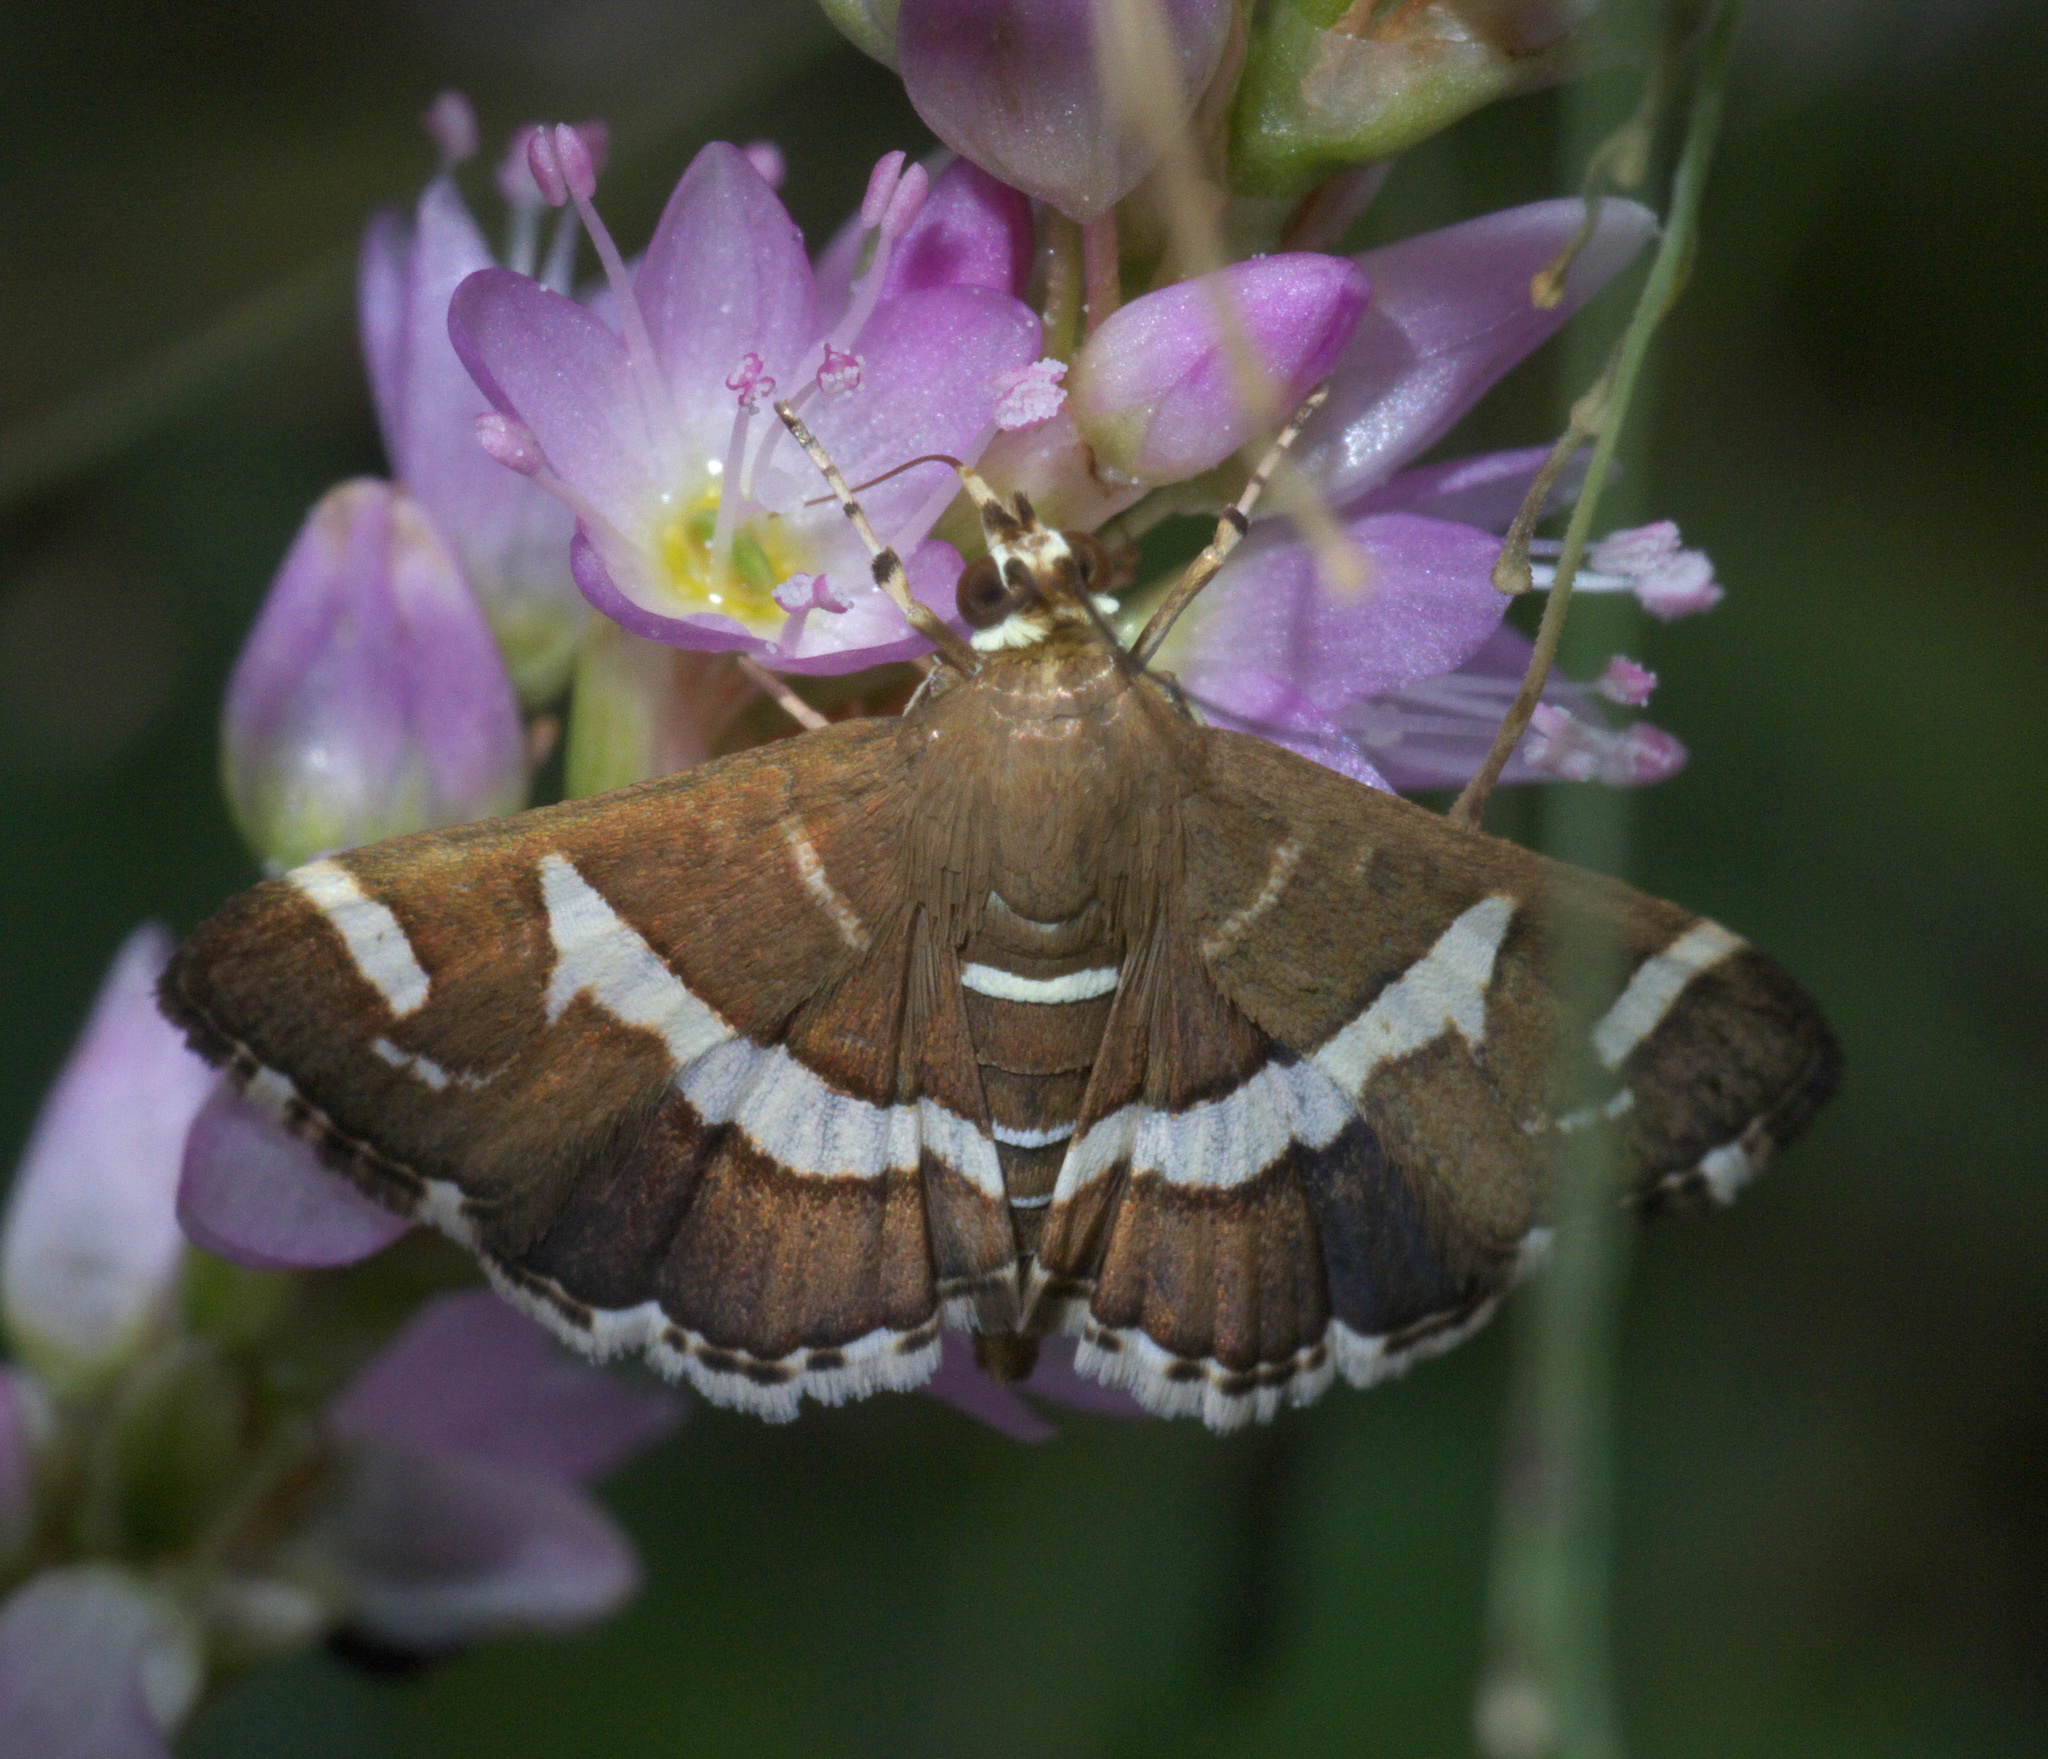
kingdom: Animalia
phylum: Arthropoda
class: Insecta
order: Lepidoptera
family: Crambidae
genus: Spoladea
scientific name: Spoladea recurvalis
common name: Beet webworm moth
